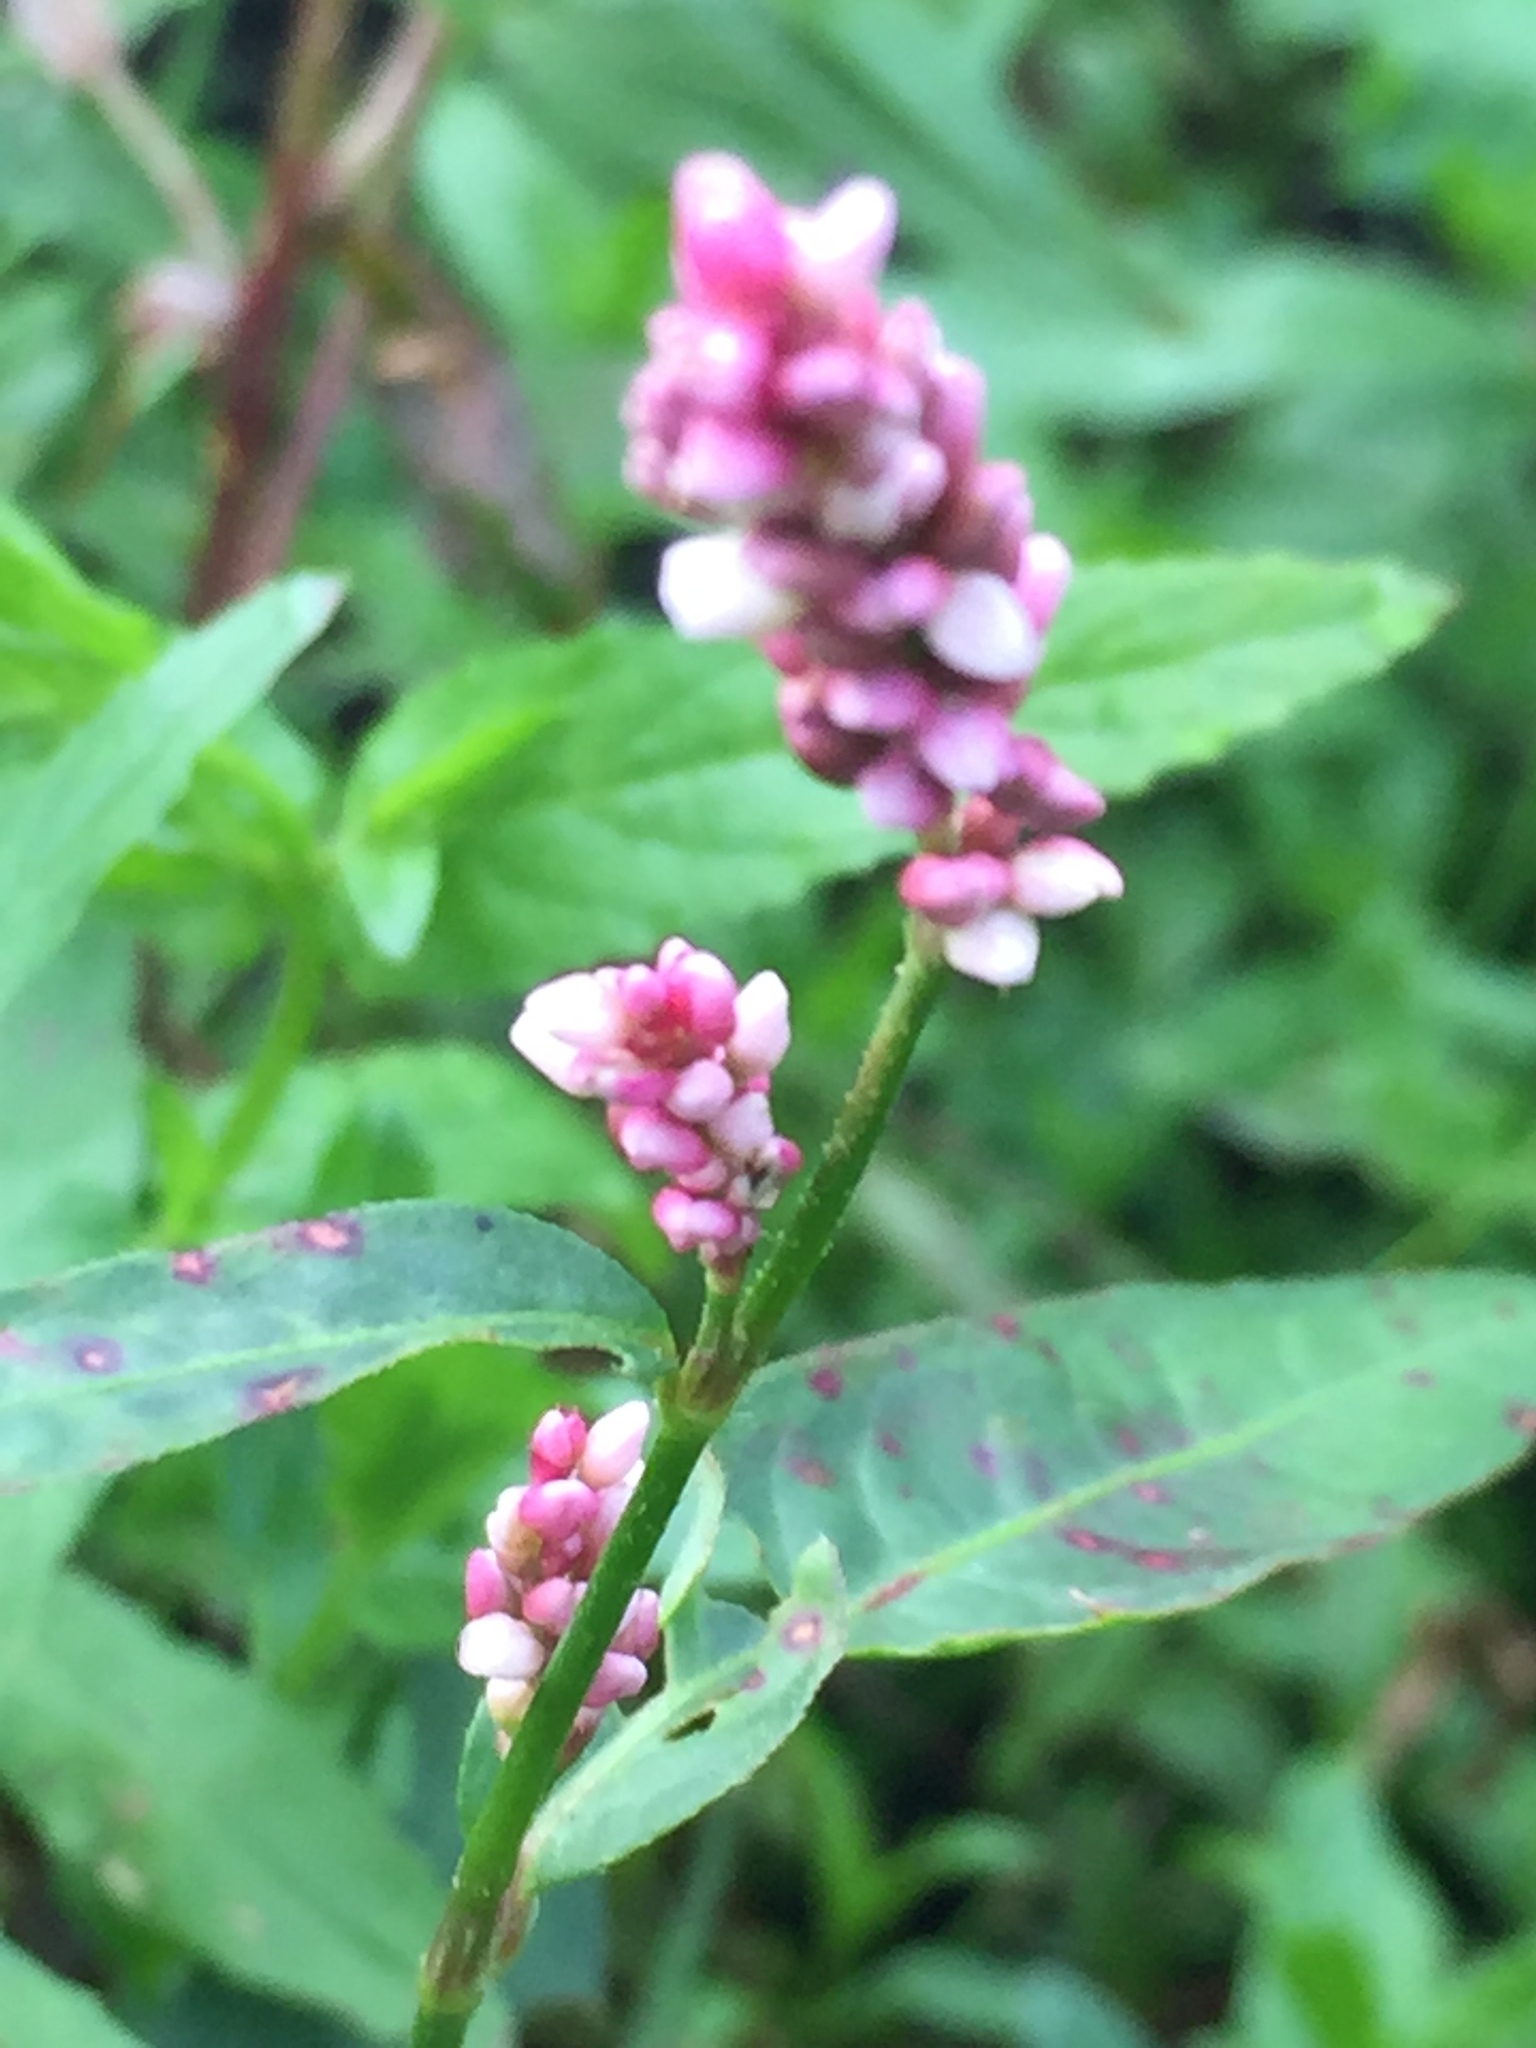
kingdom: Plantae
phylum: Tracheophyta
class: Magnoliopsida
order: Caryophyllales
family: Polygonaceae
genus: Persicaria
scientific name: Persicaria lapathifolia
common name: Curlytop knotweed
